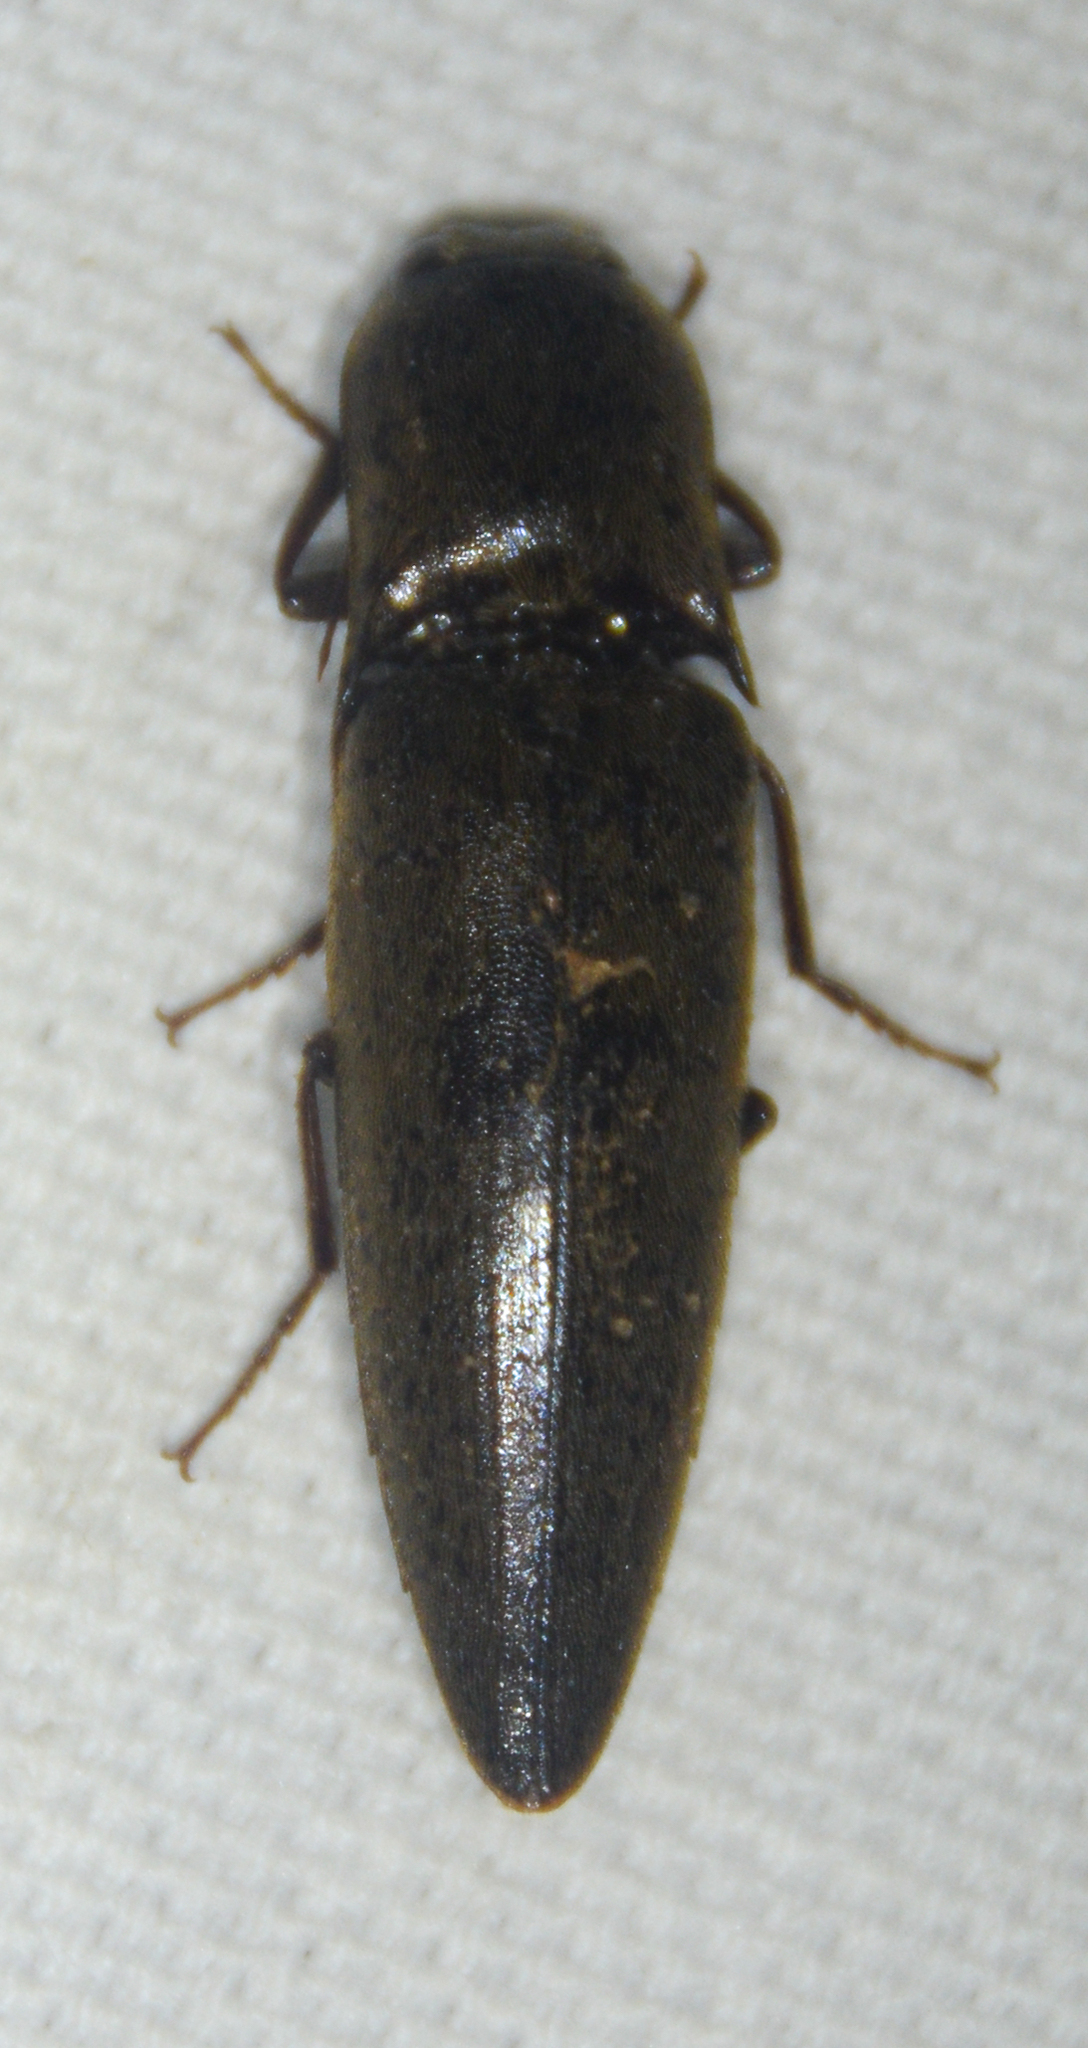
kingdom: Animalia
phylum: Arthropoda
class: Insecta
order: Coleoptera
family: Elateridae
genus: Orthostethus
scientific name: Orthostethus infuscatus
